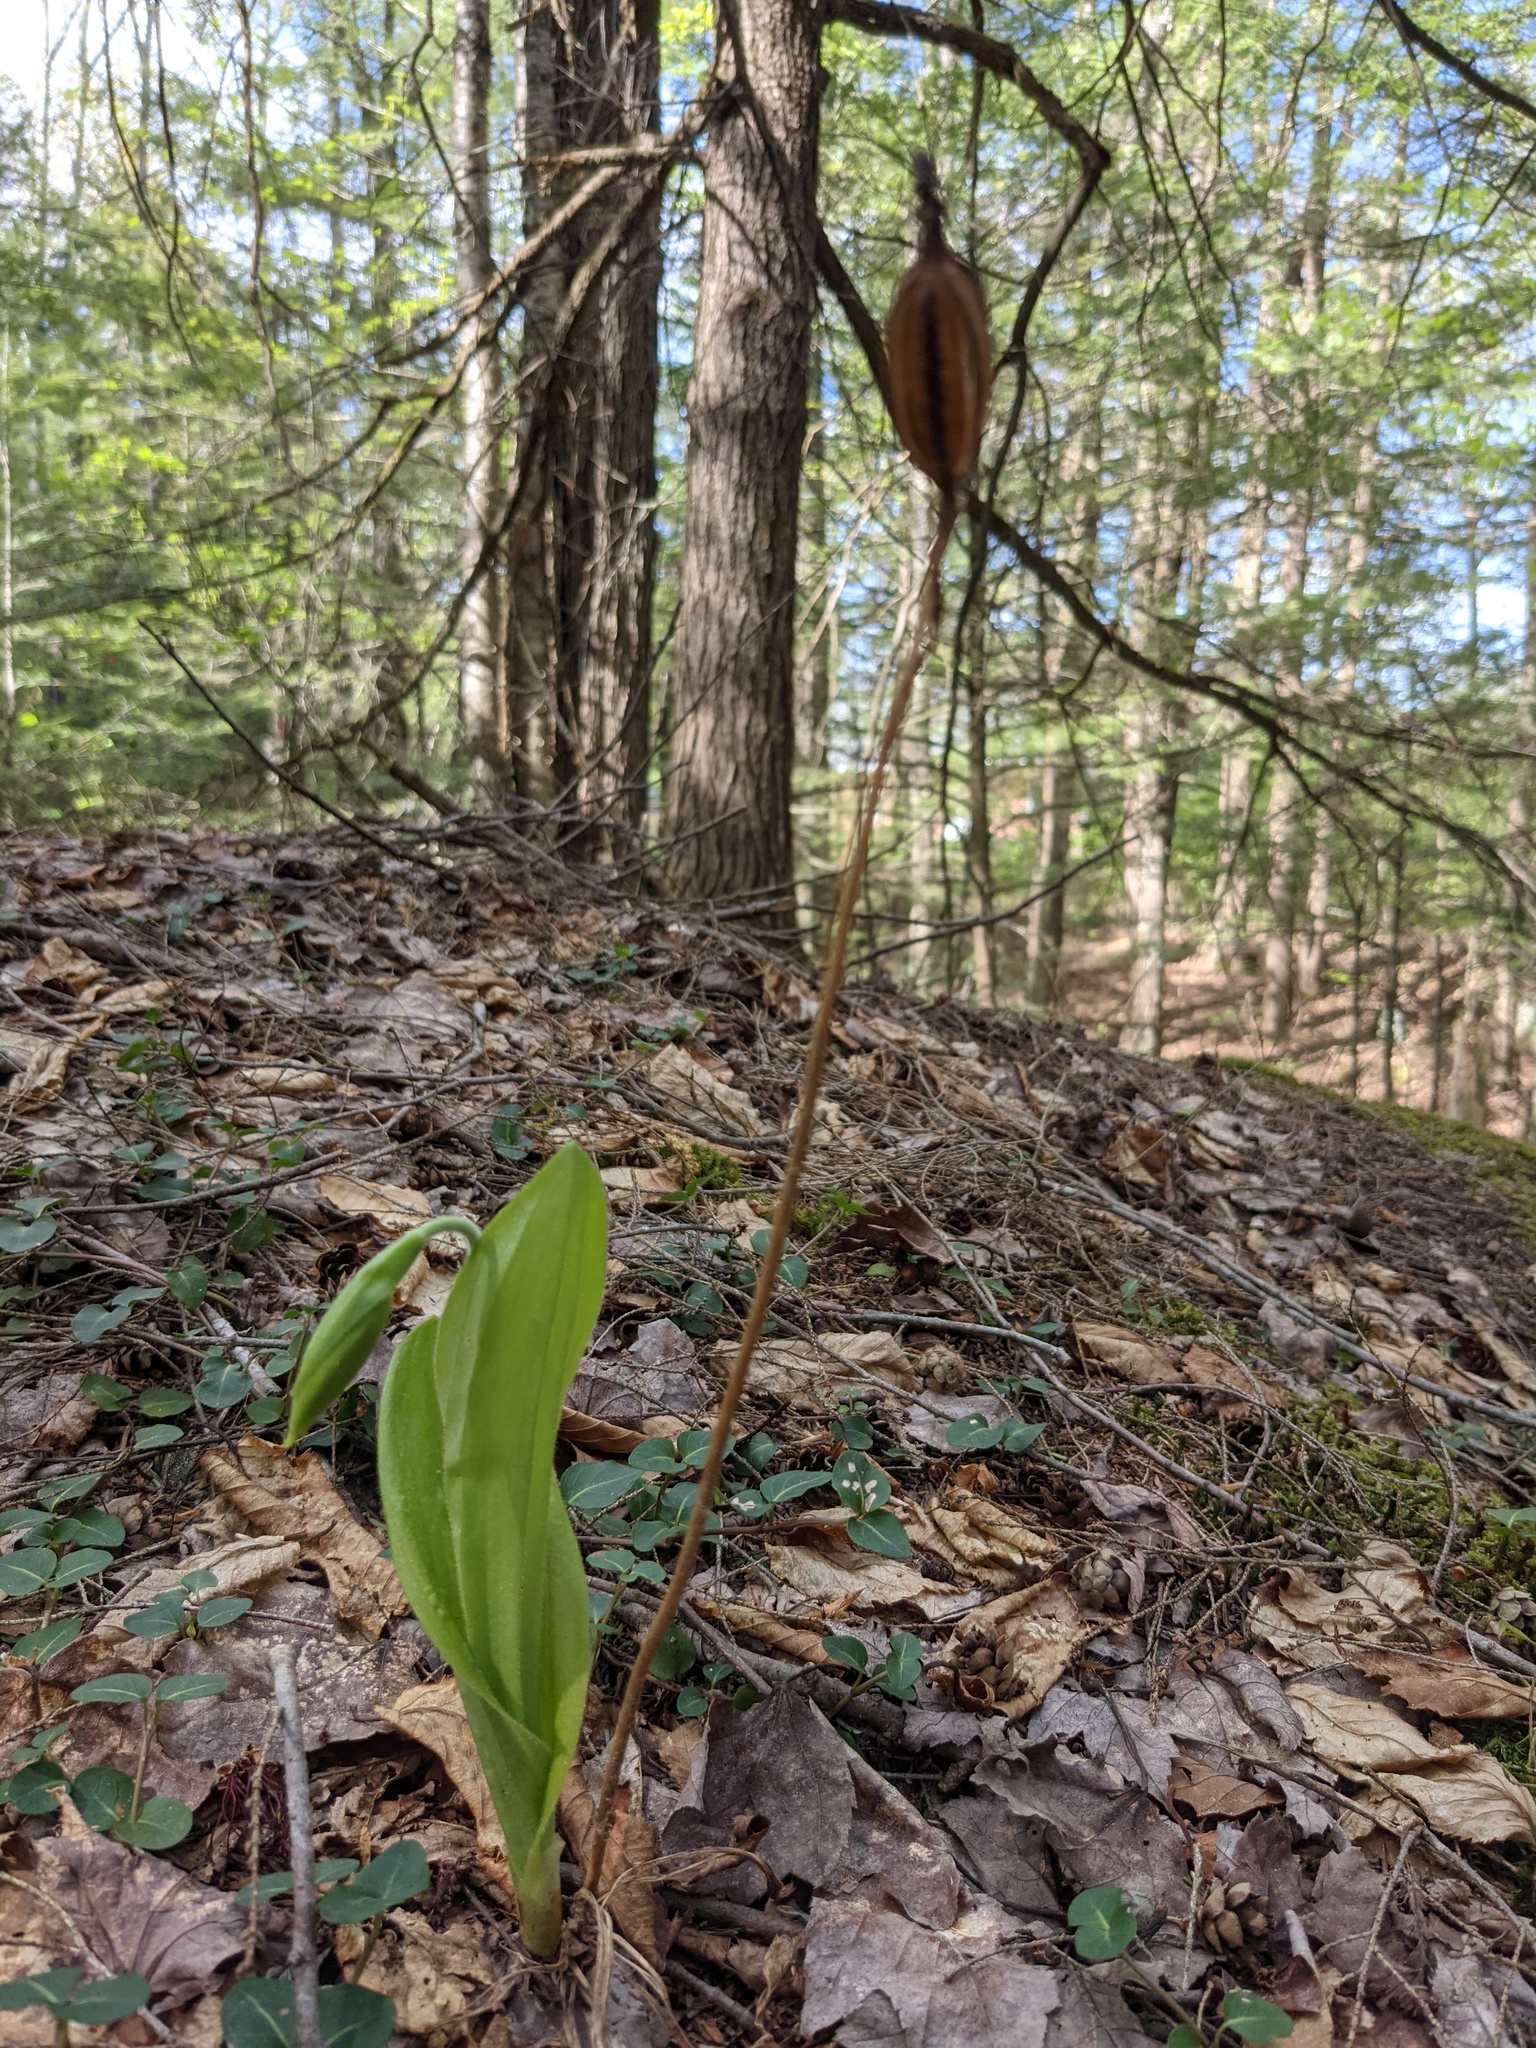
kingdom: Plantae
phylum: Tracheophyta
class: Liliopsida
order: Asparagales
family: Orchidaceae
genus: Cypripedium
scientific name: Cypripedium acaule
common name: Pink lady's-slipper
